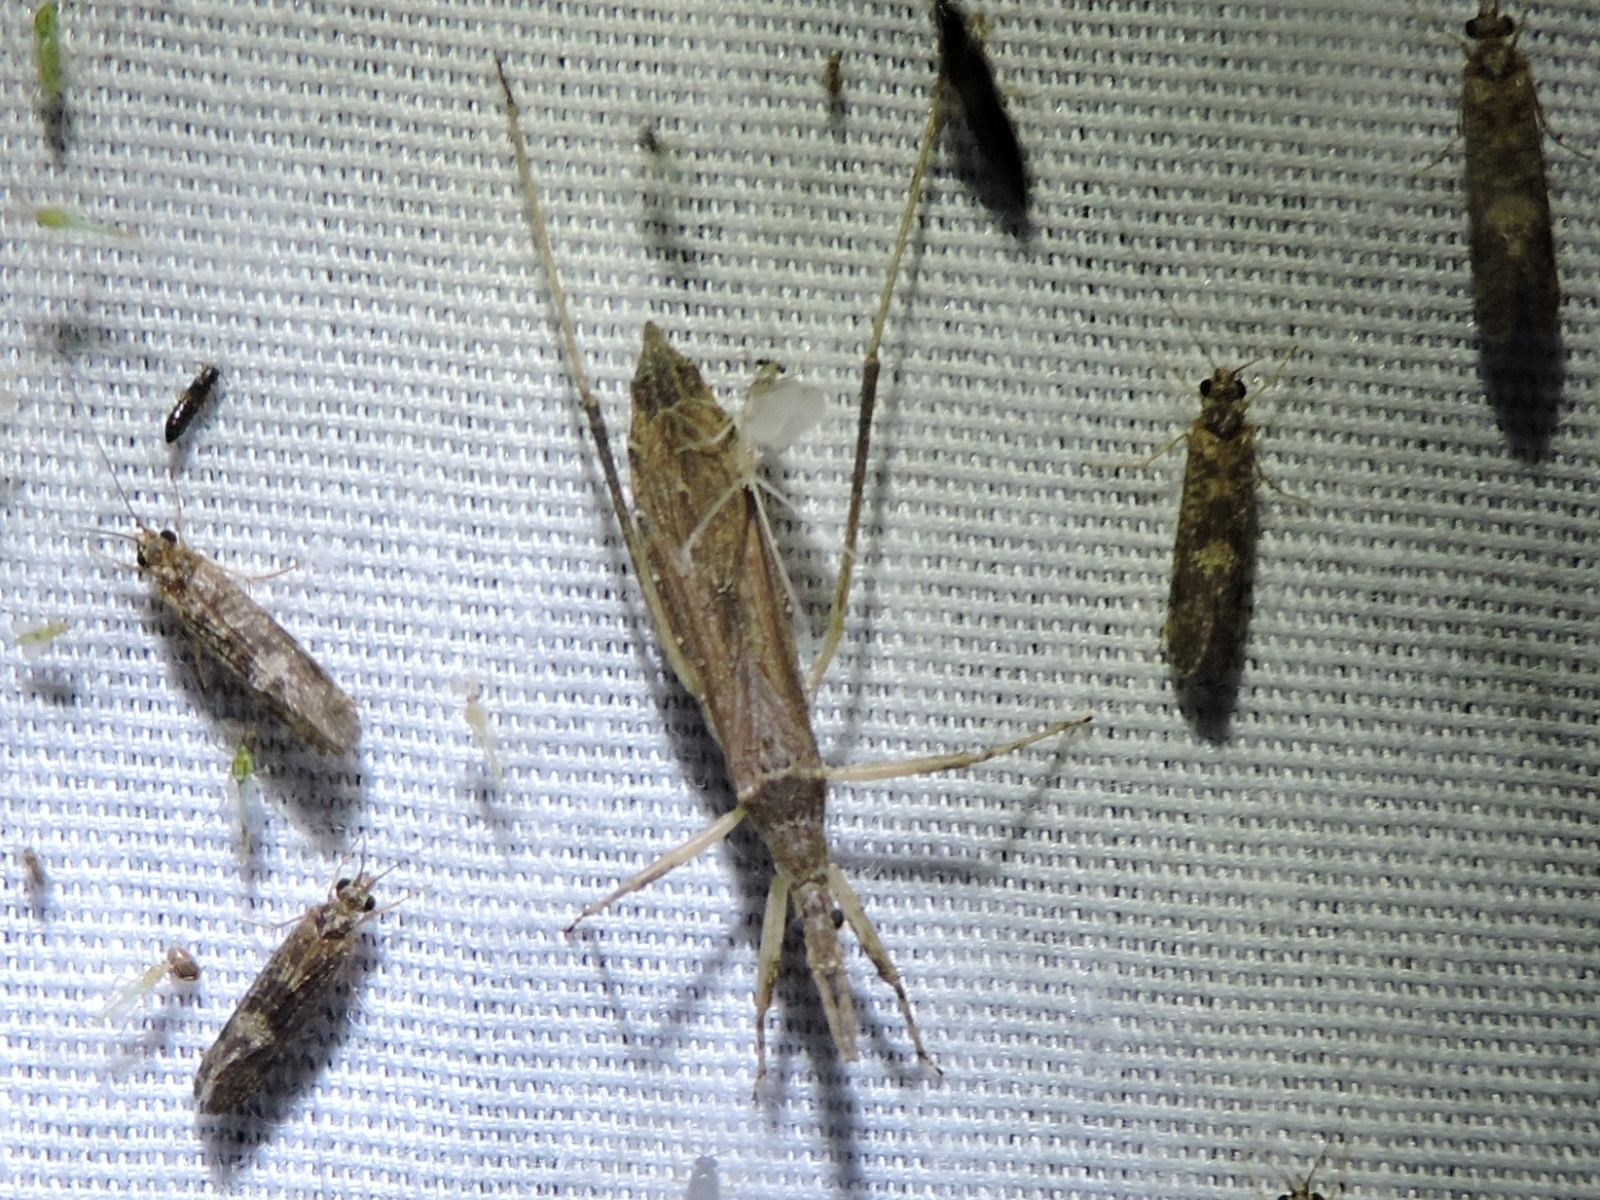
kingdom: Animalia
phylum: Arthropoda
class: Insecta
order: Hemiptera
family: Reduviidae
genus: Pygolampis
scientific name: Pygolampis pectoralis
